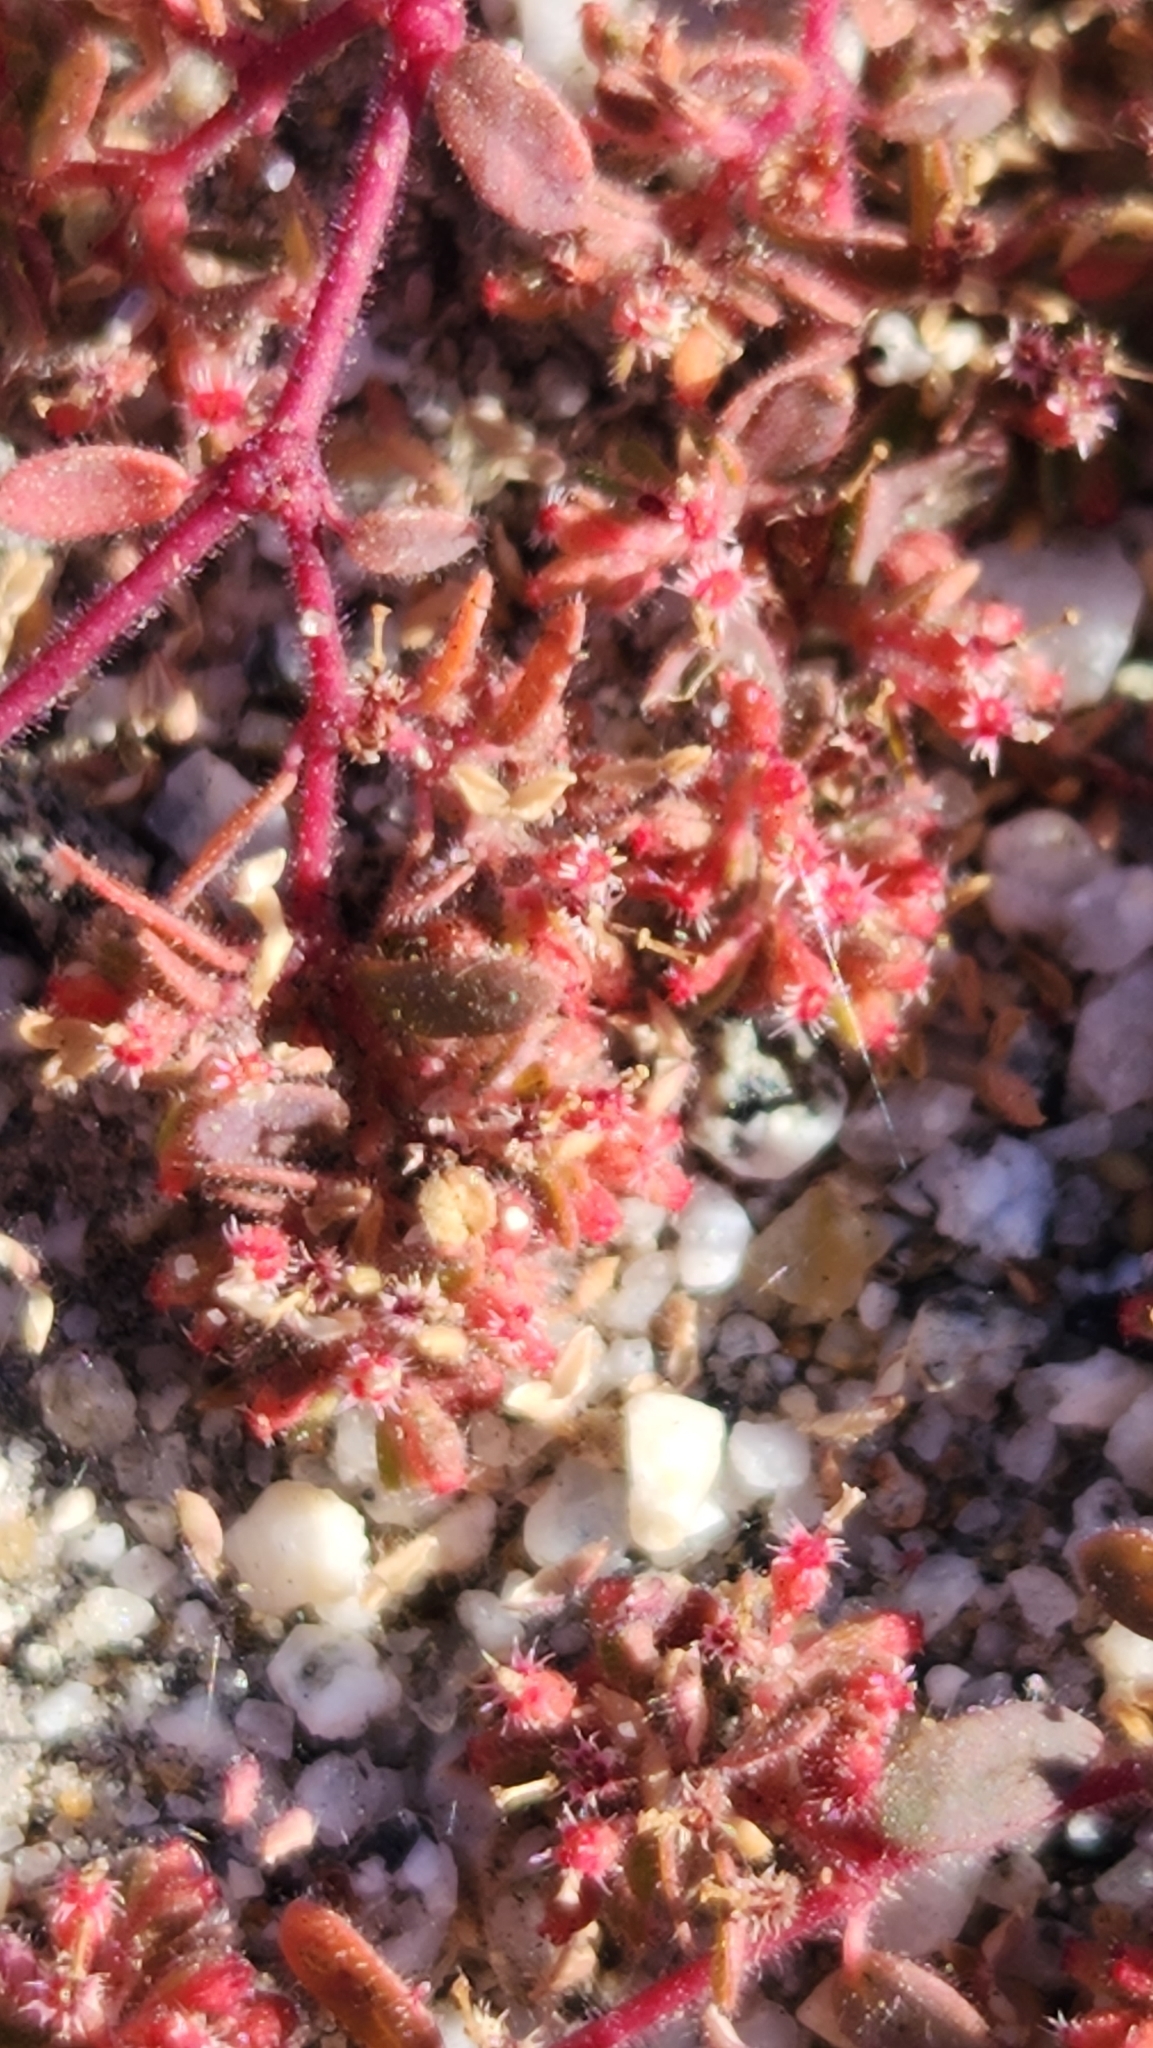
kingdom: Plantae
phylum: Tracheophyta
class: Magnoliopsida
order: Malpighiales
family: Euphorbiaceae
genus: Euphorbia
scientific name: Euphorbia setiloba
